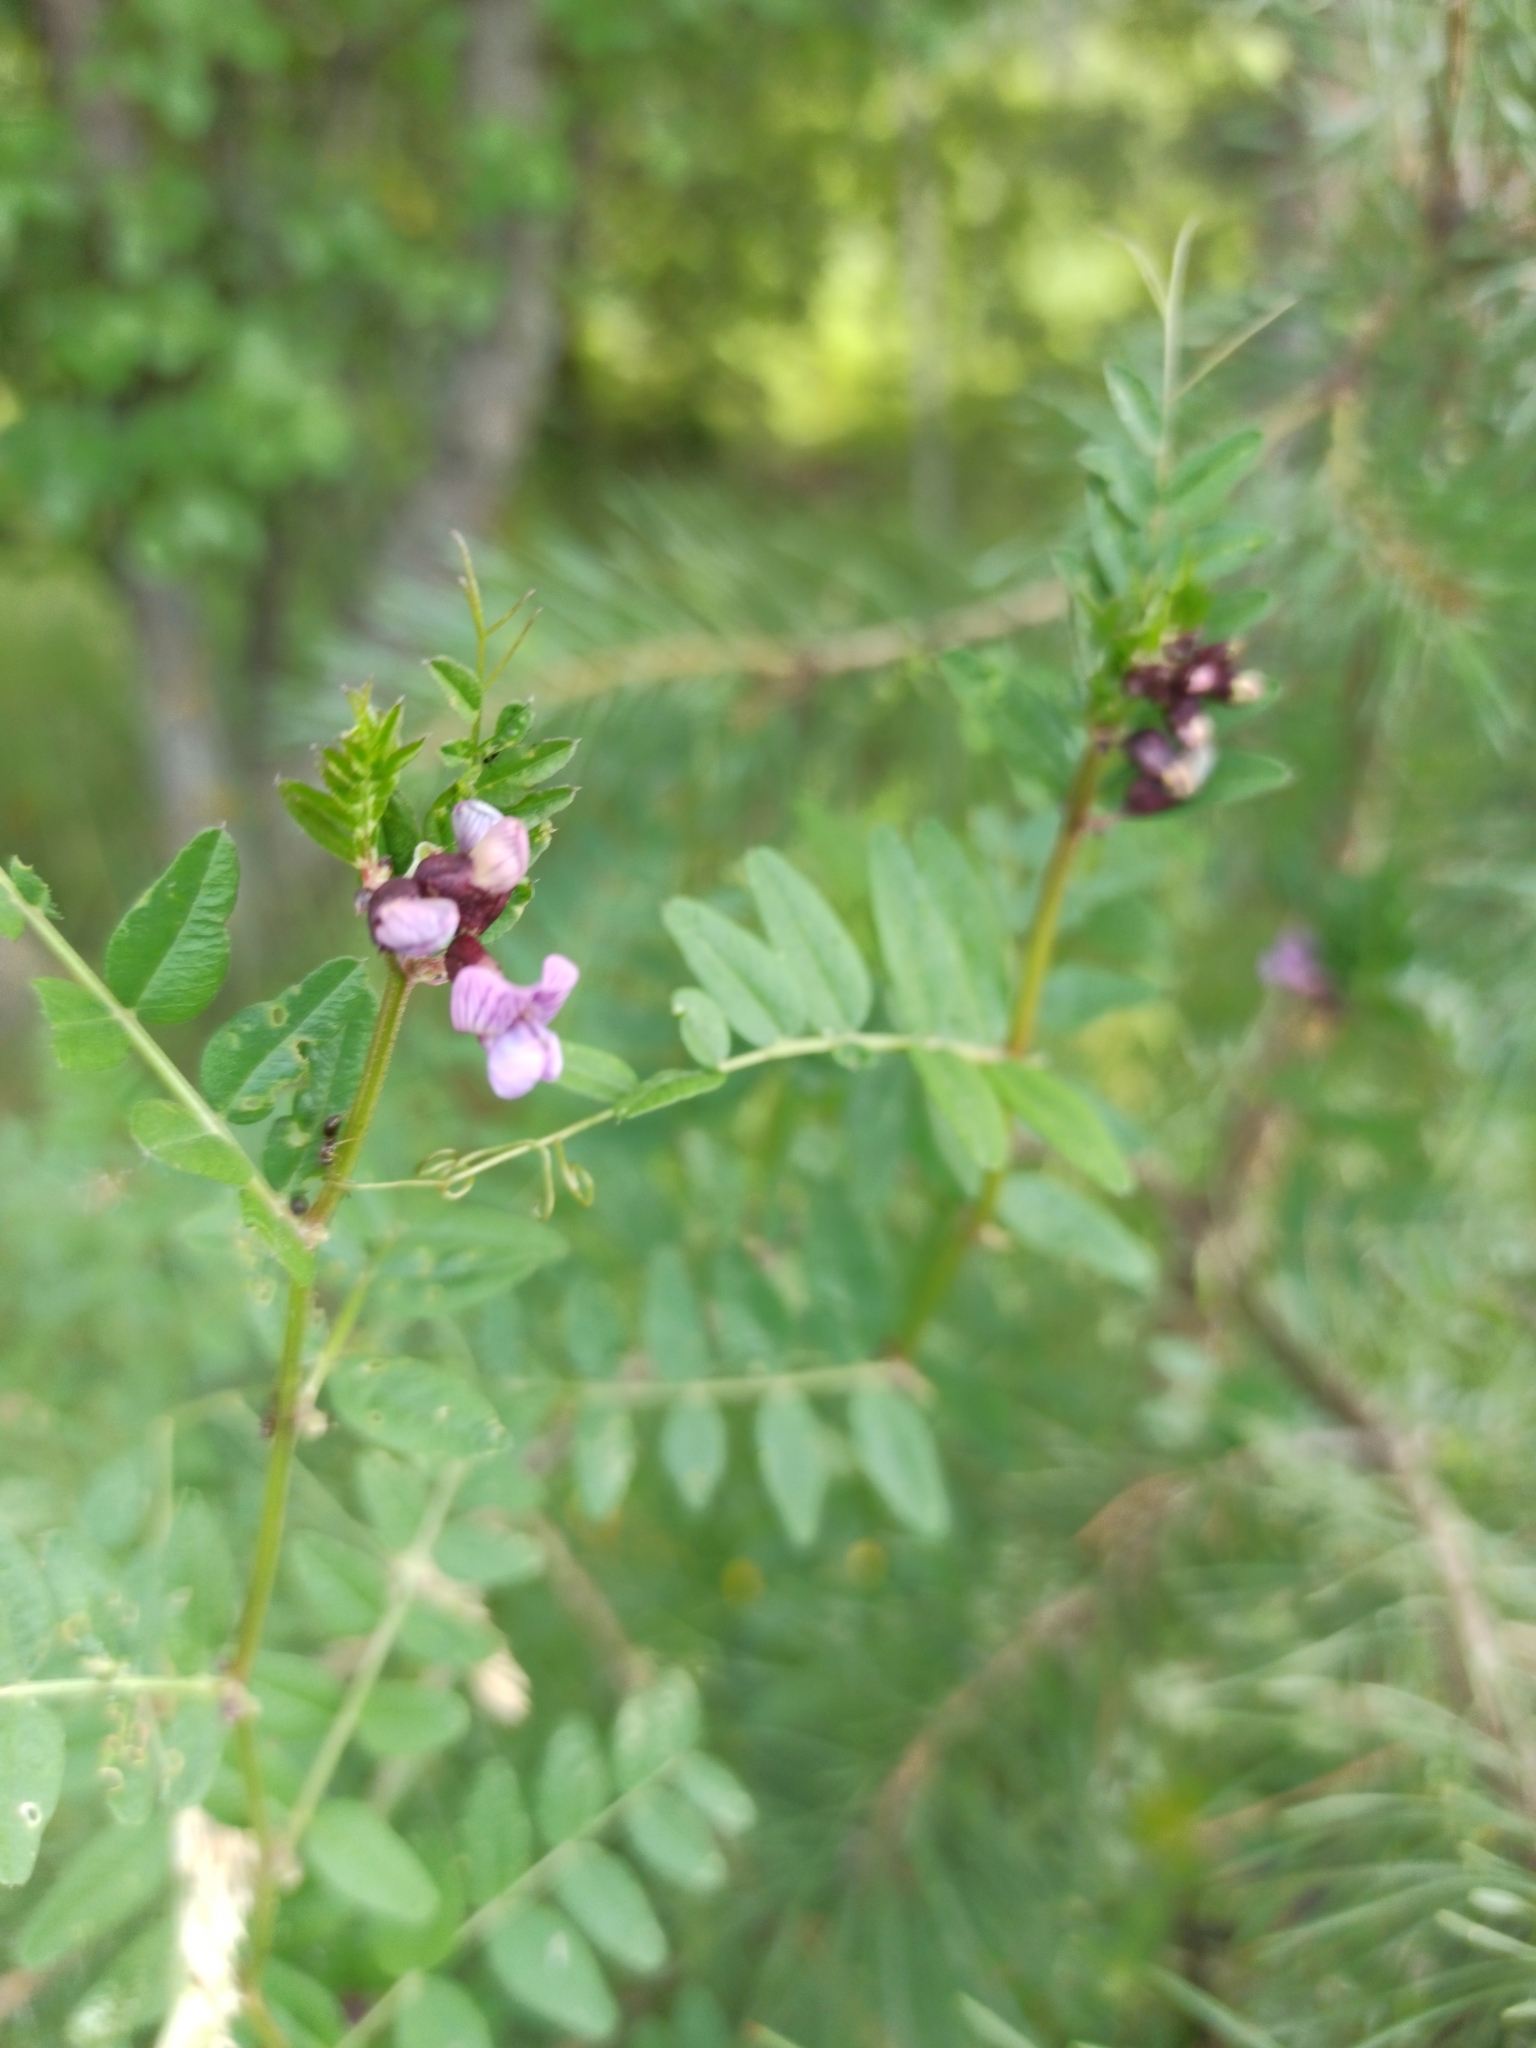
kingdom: Plantae
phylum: Tracheophyta
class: Magnoliopsida
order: Fabales
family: Fabaceae
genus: Vicia
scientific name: Vicia sepium
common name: Bush vetch
